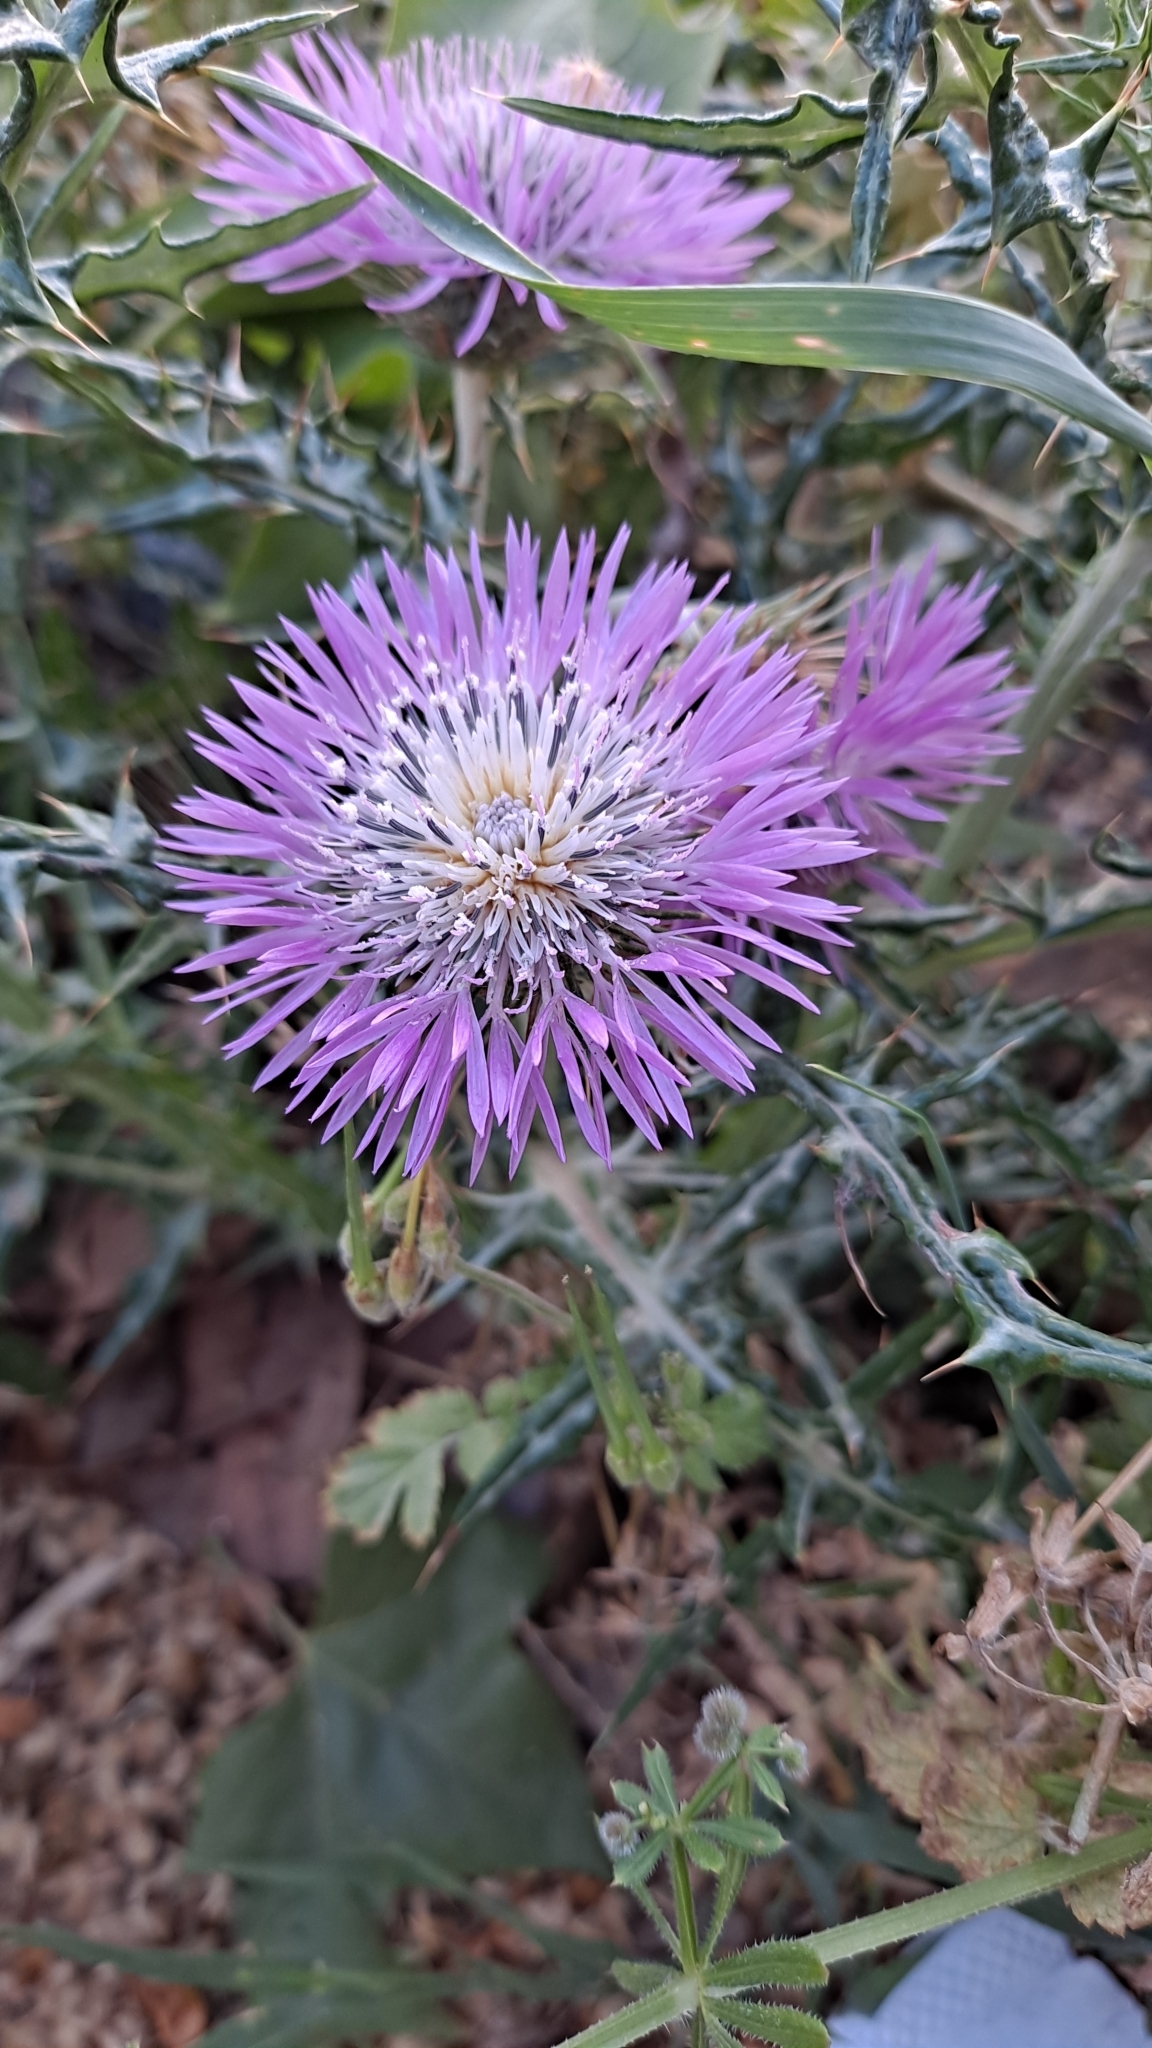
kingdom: Plantae
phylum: Tracheophyta
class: Magnoliopsida
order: Asterales
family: Asteraceae
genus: Galactites
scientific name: Galactites tomentosa
